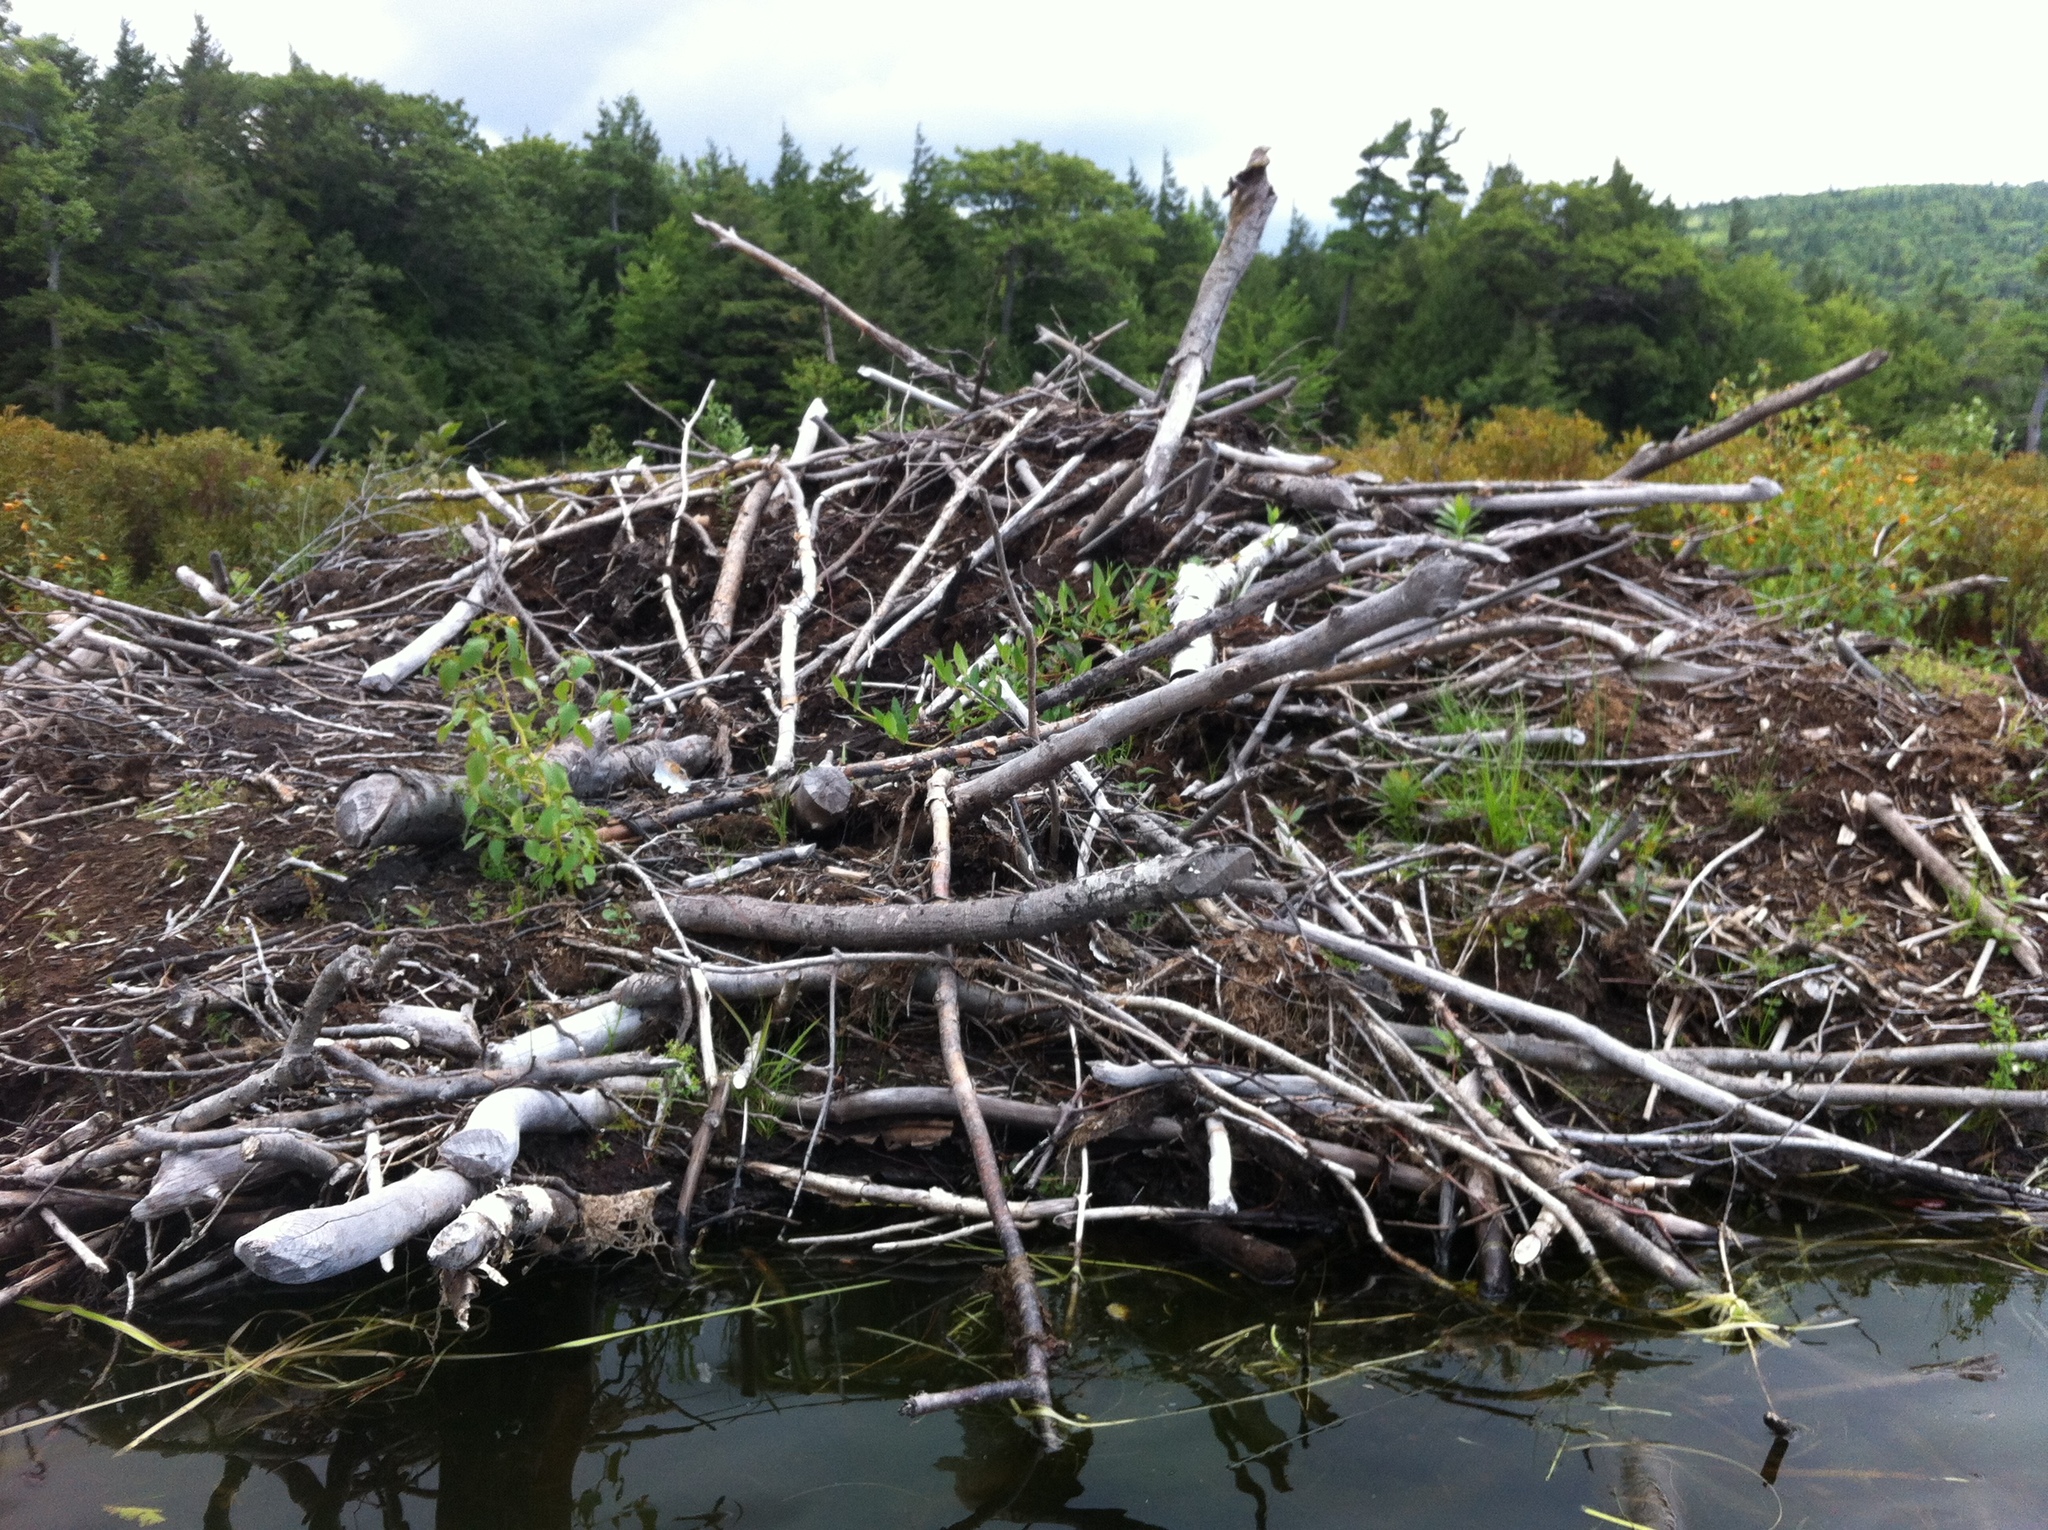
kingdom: Animalia
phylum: Chordata
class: Mammalia
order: Rodentia
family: Castoridae
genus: Castor
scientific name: Castor canadensis
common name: American beaver
